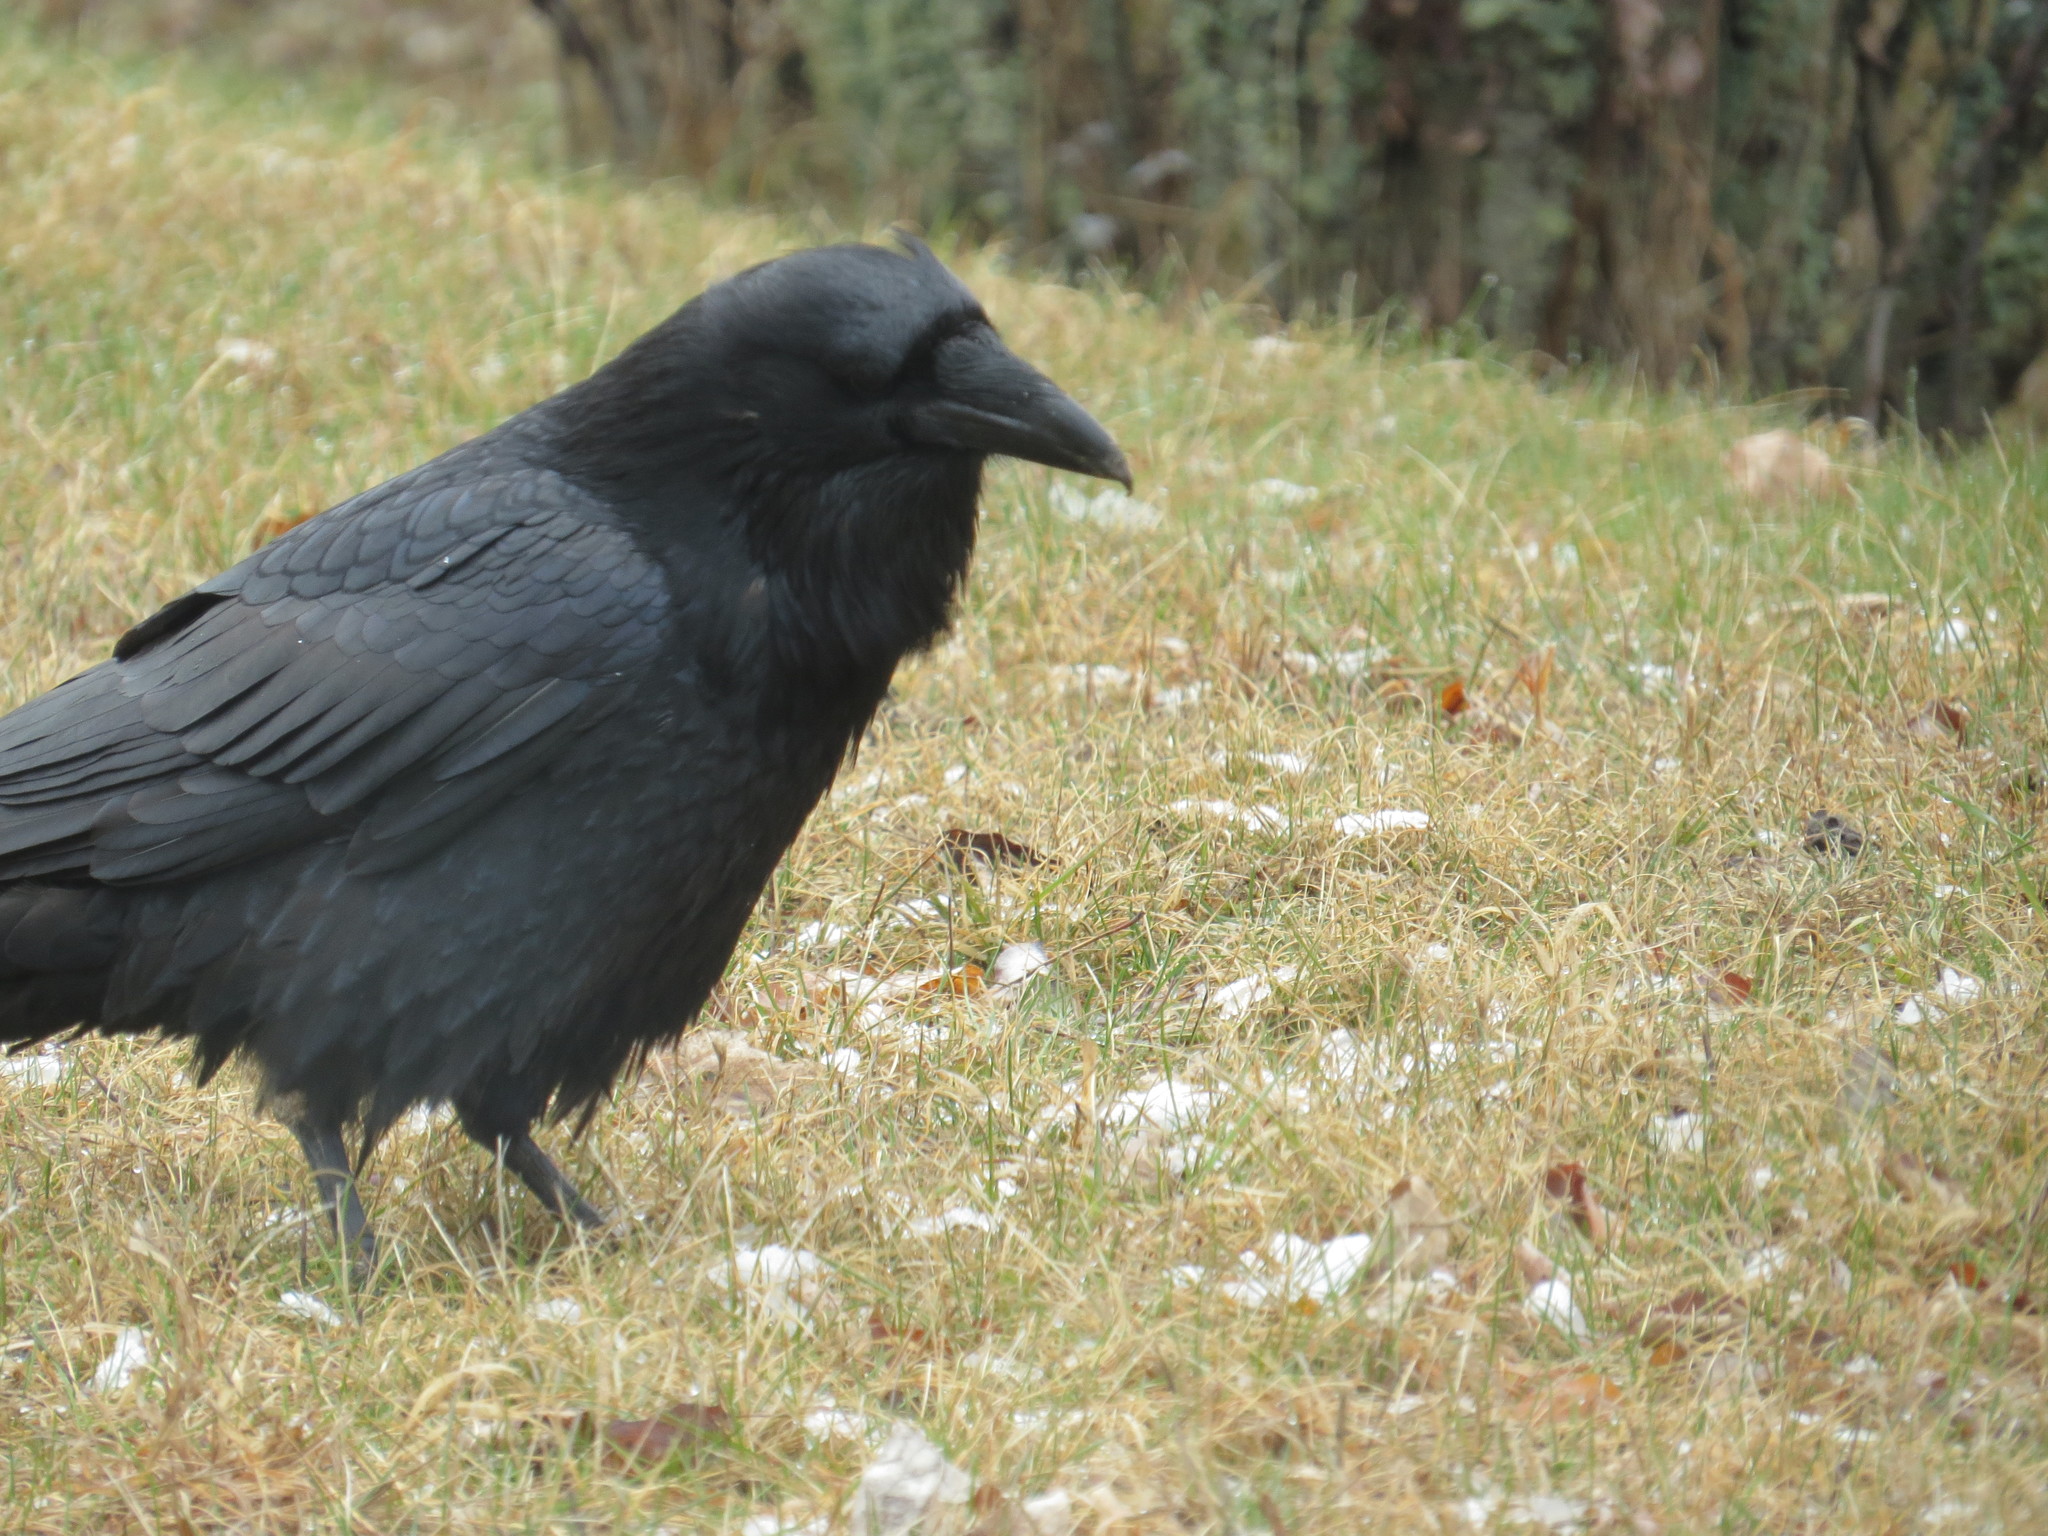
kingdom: Animalia
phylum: Chordata
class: Aves
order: Passeriformes
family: Corvidae
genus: Corvus
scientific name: Corvus corax
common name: Common raven
